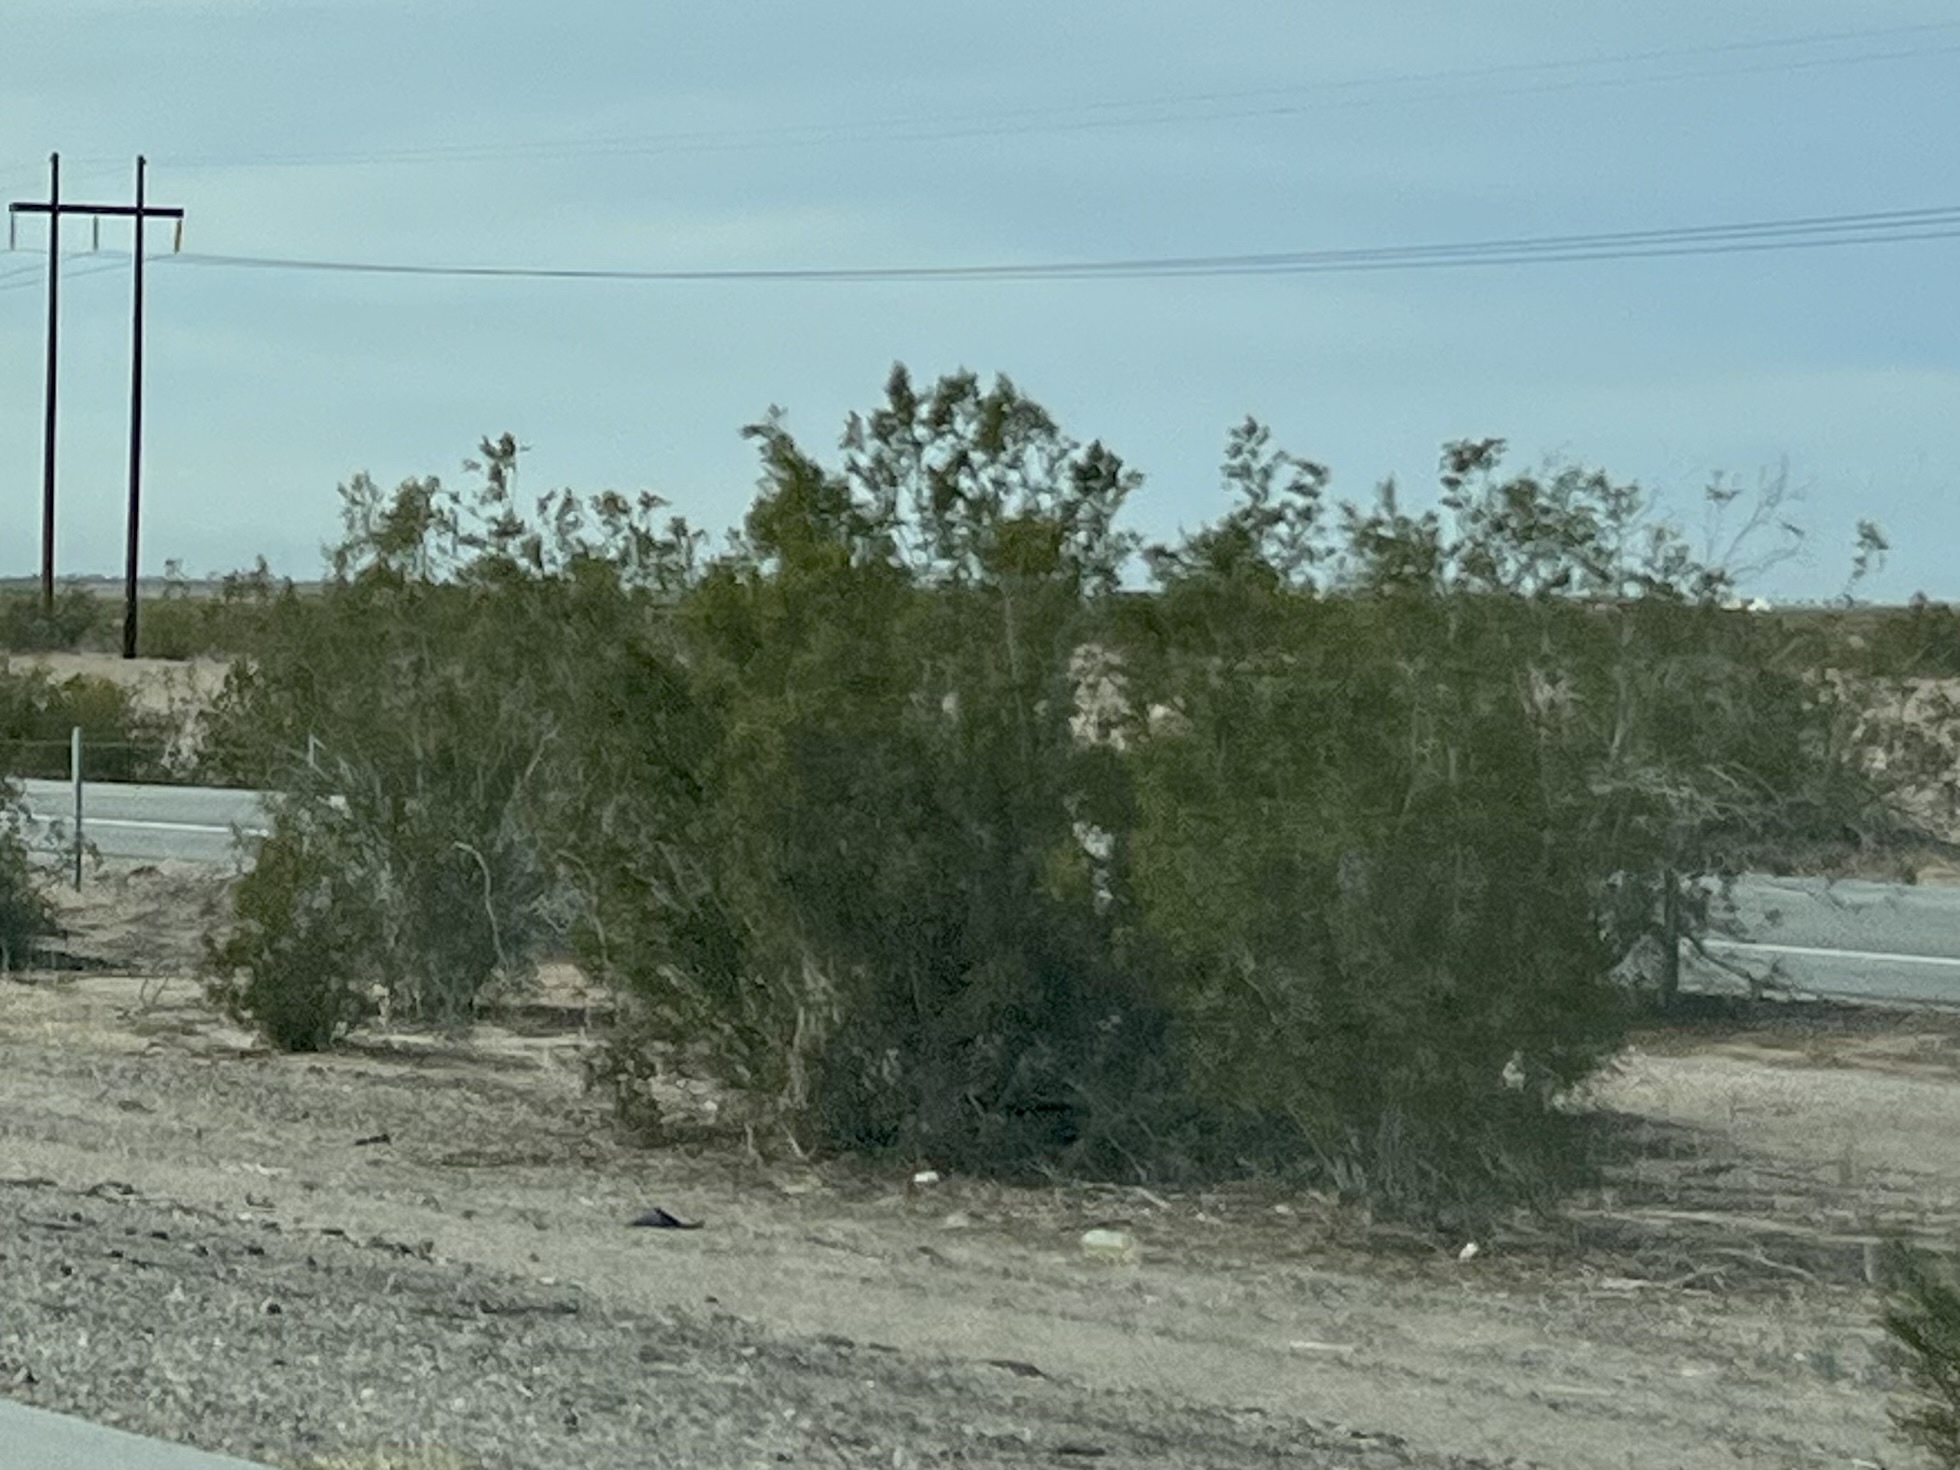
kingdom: Plantae
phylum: Tracheophyta
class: Magnoliopsida
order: Zygophyllales
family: Zygophyllaceae
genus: Larrea
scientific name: Larrea tridentata
